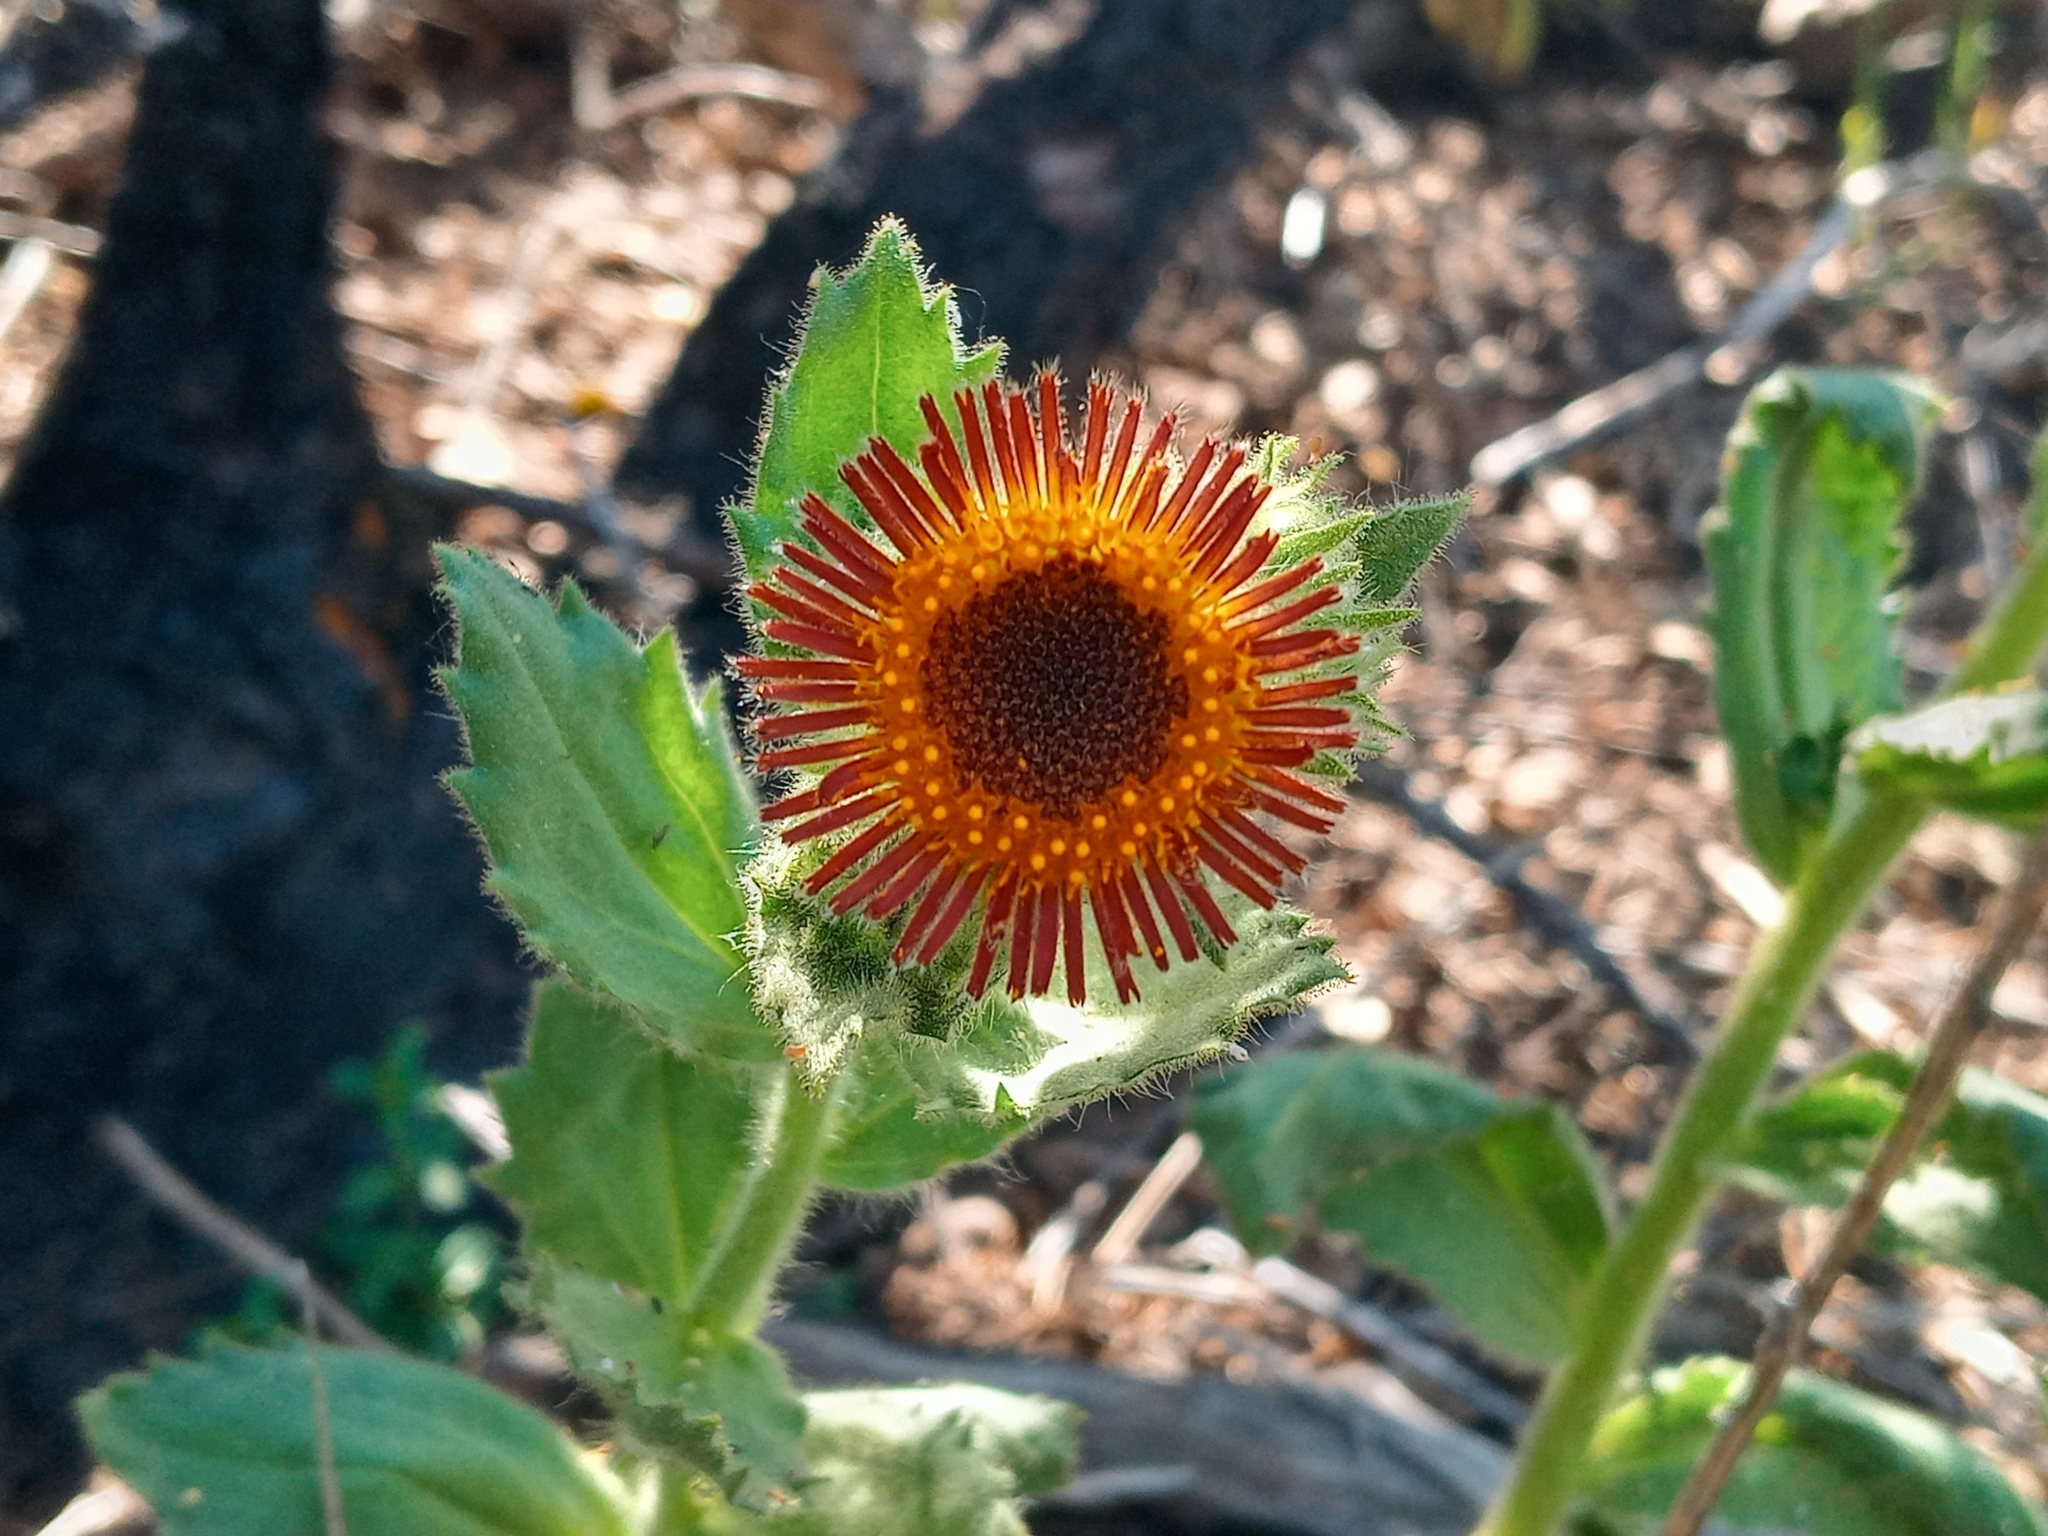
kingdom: Plantae
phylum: Tracheophyta
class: Magnoliopsida
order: Asterales
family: Asteraceae
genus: Hulsea
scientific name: Hulsea heterochroma
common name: Redray alpinegold
